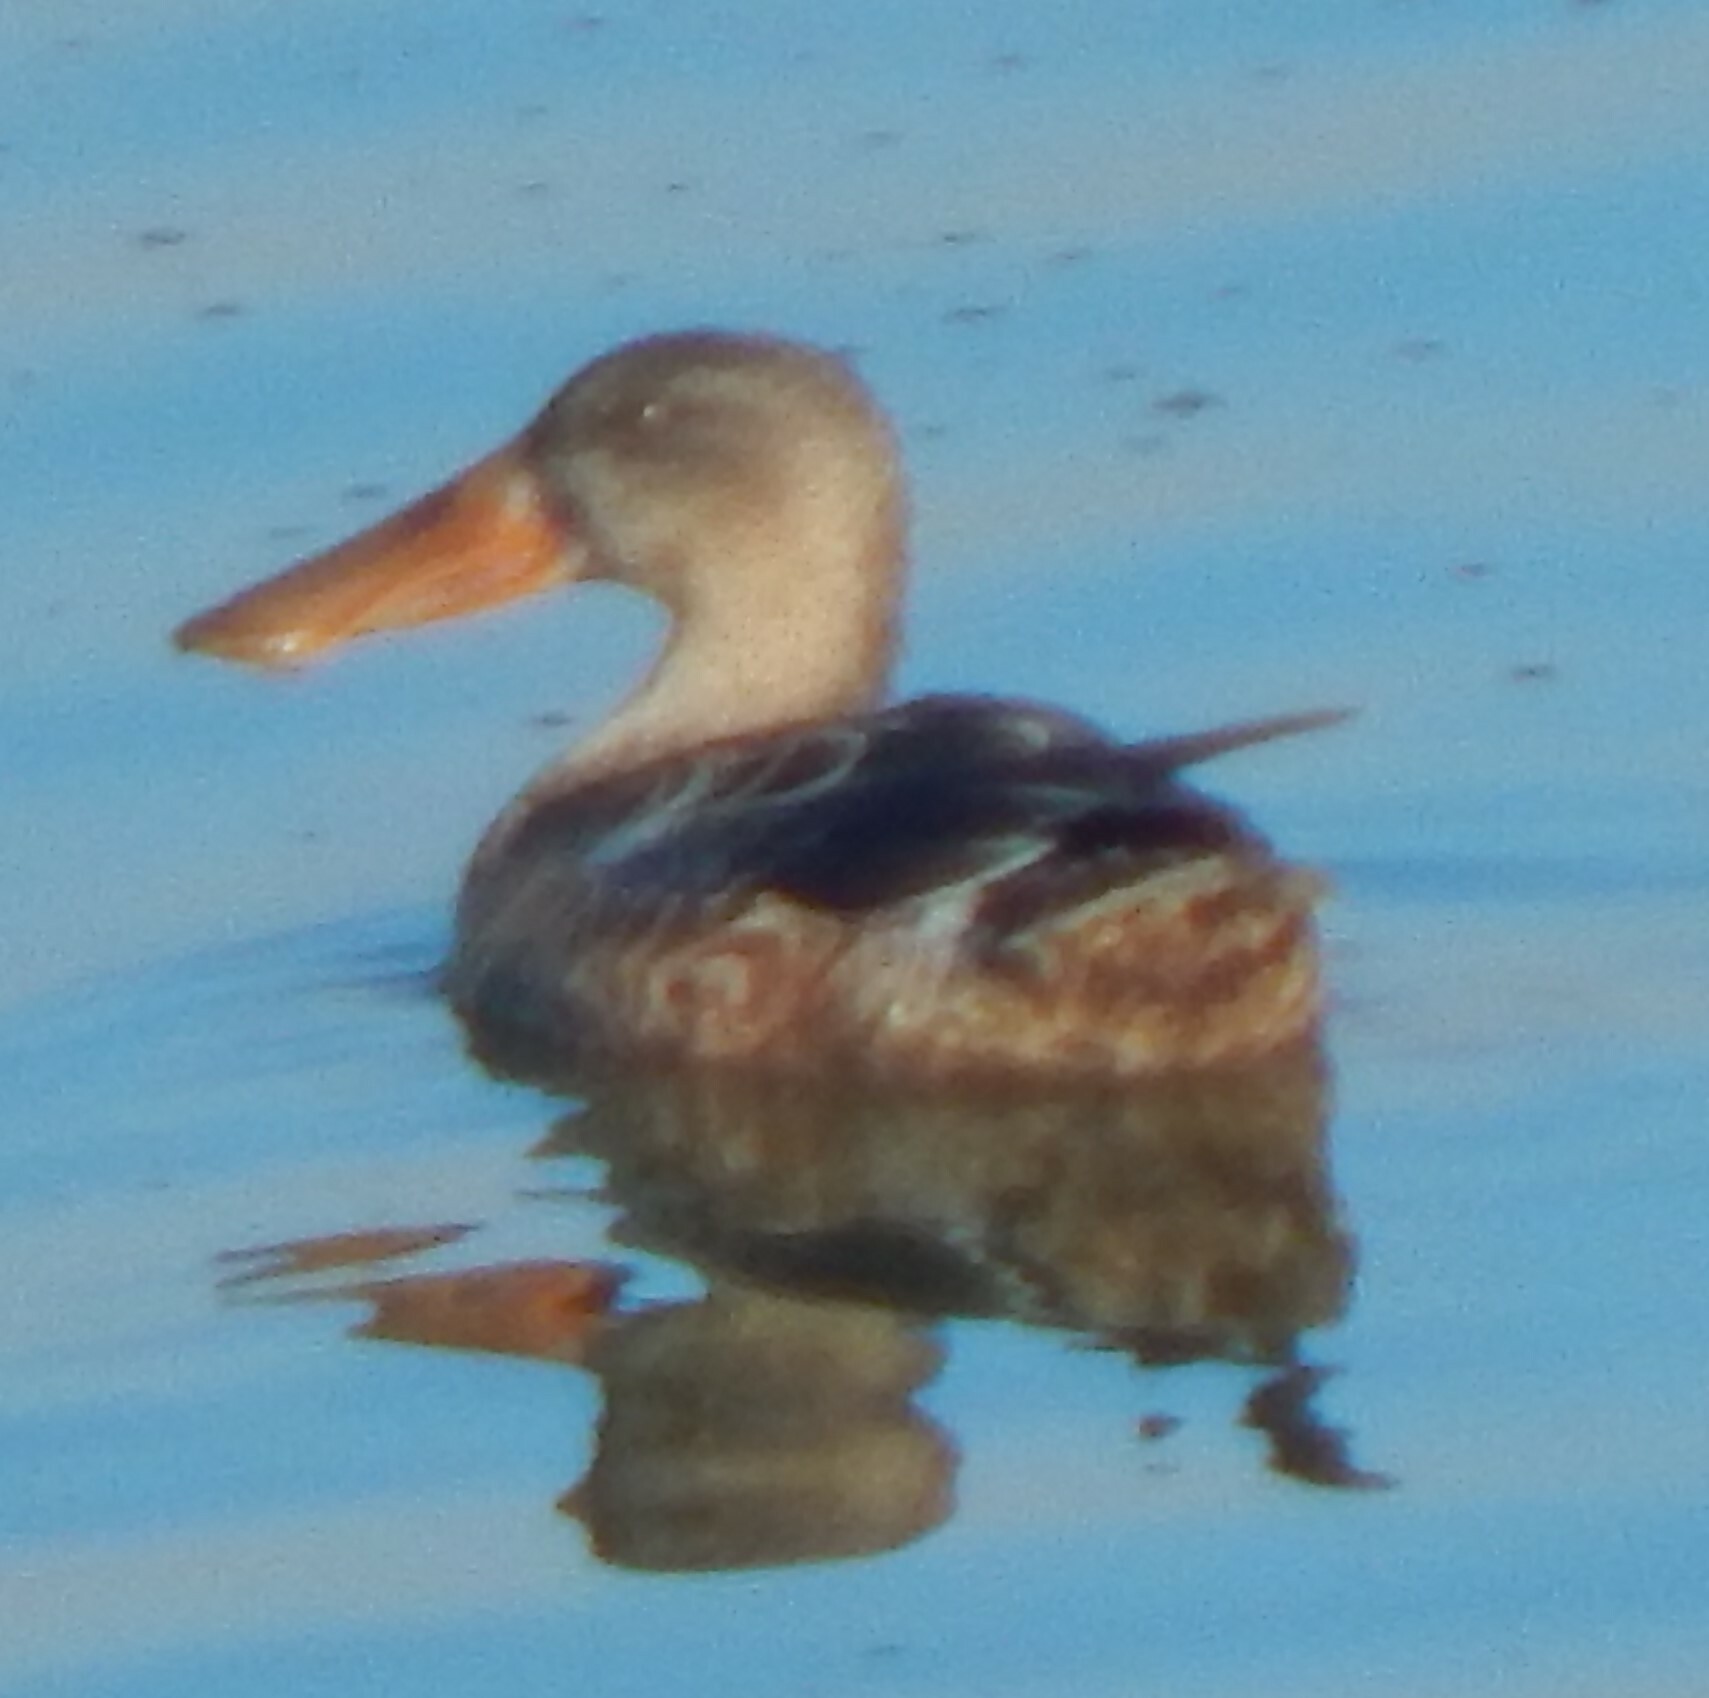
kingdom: Animalia
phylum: Chordata
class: Aves
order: Anseriformes
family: Anatidae
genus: Spatula
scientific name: Spatula clypeata
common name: Northern shoveler
